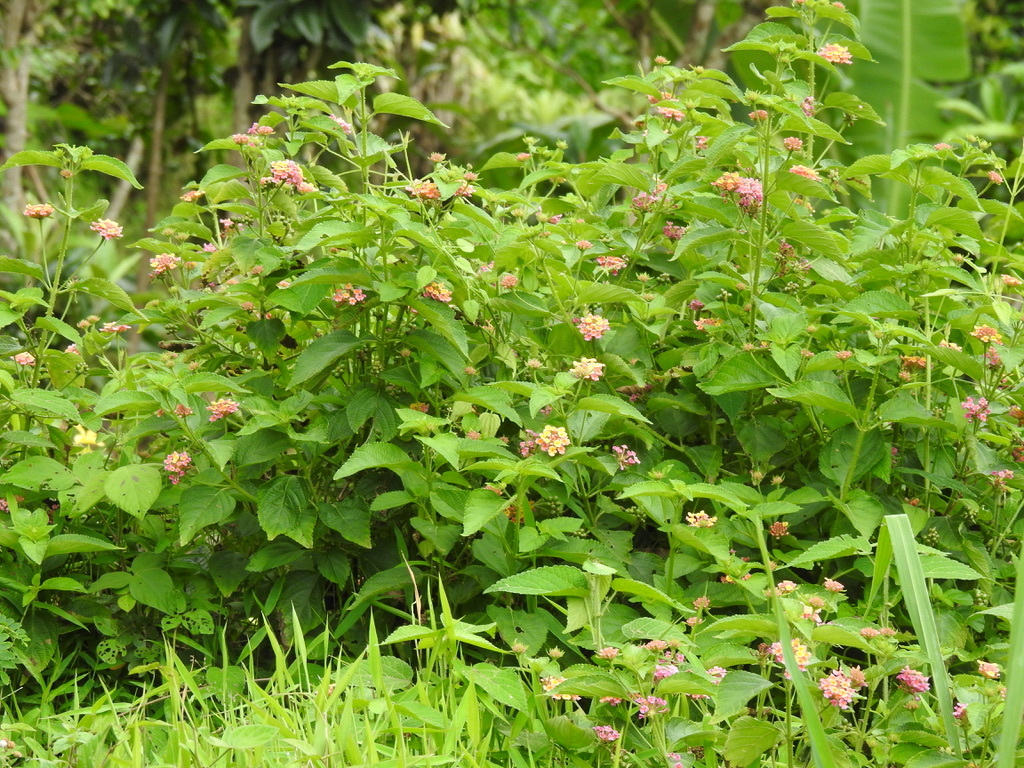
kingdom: Plantae
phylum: Tracheophyta
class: Magnoliopsida
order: Lamiales
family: Verbenaceae
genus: Lantana
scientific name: Lantana camara
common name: Lantana
